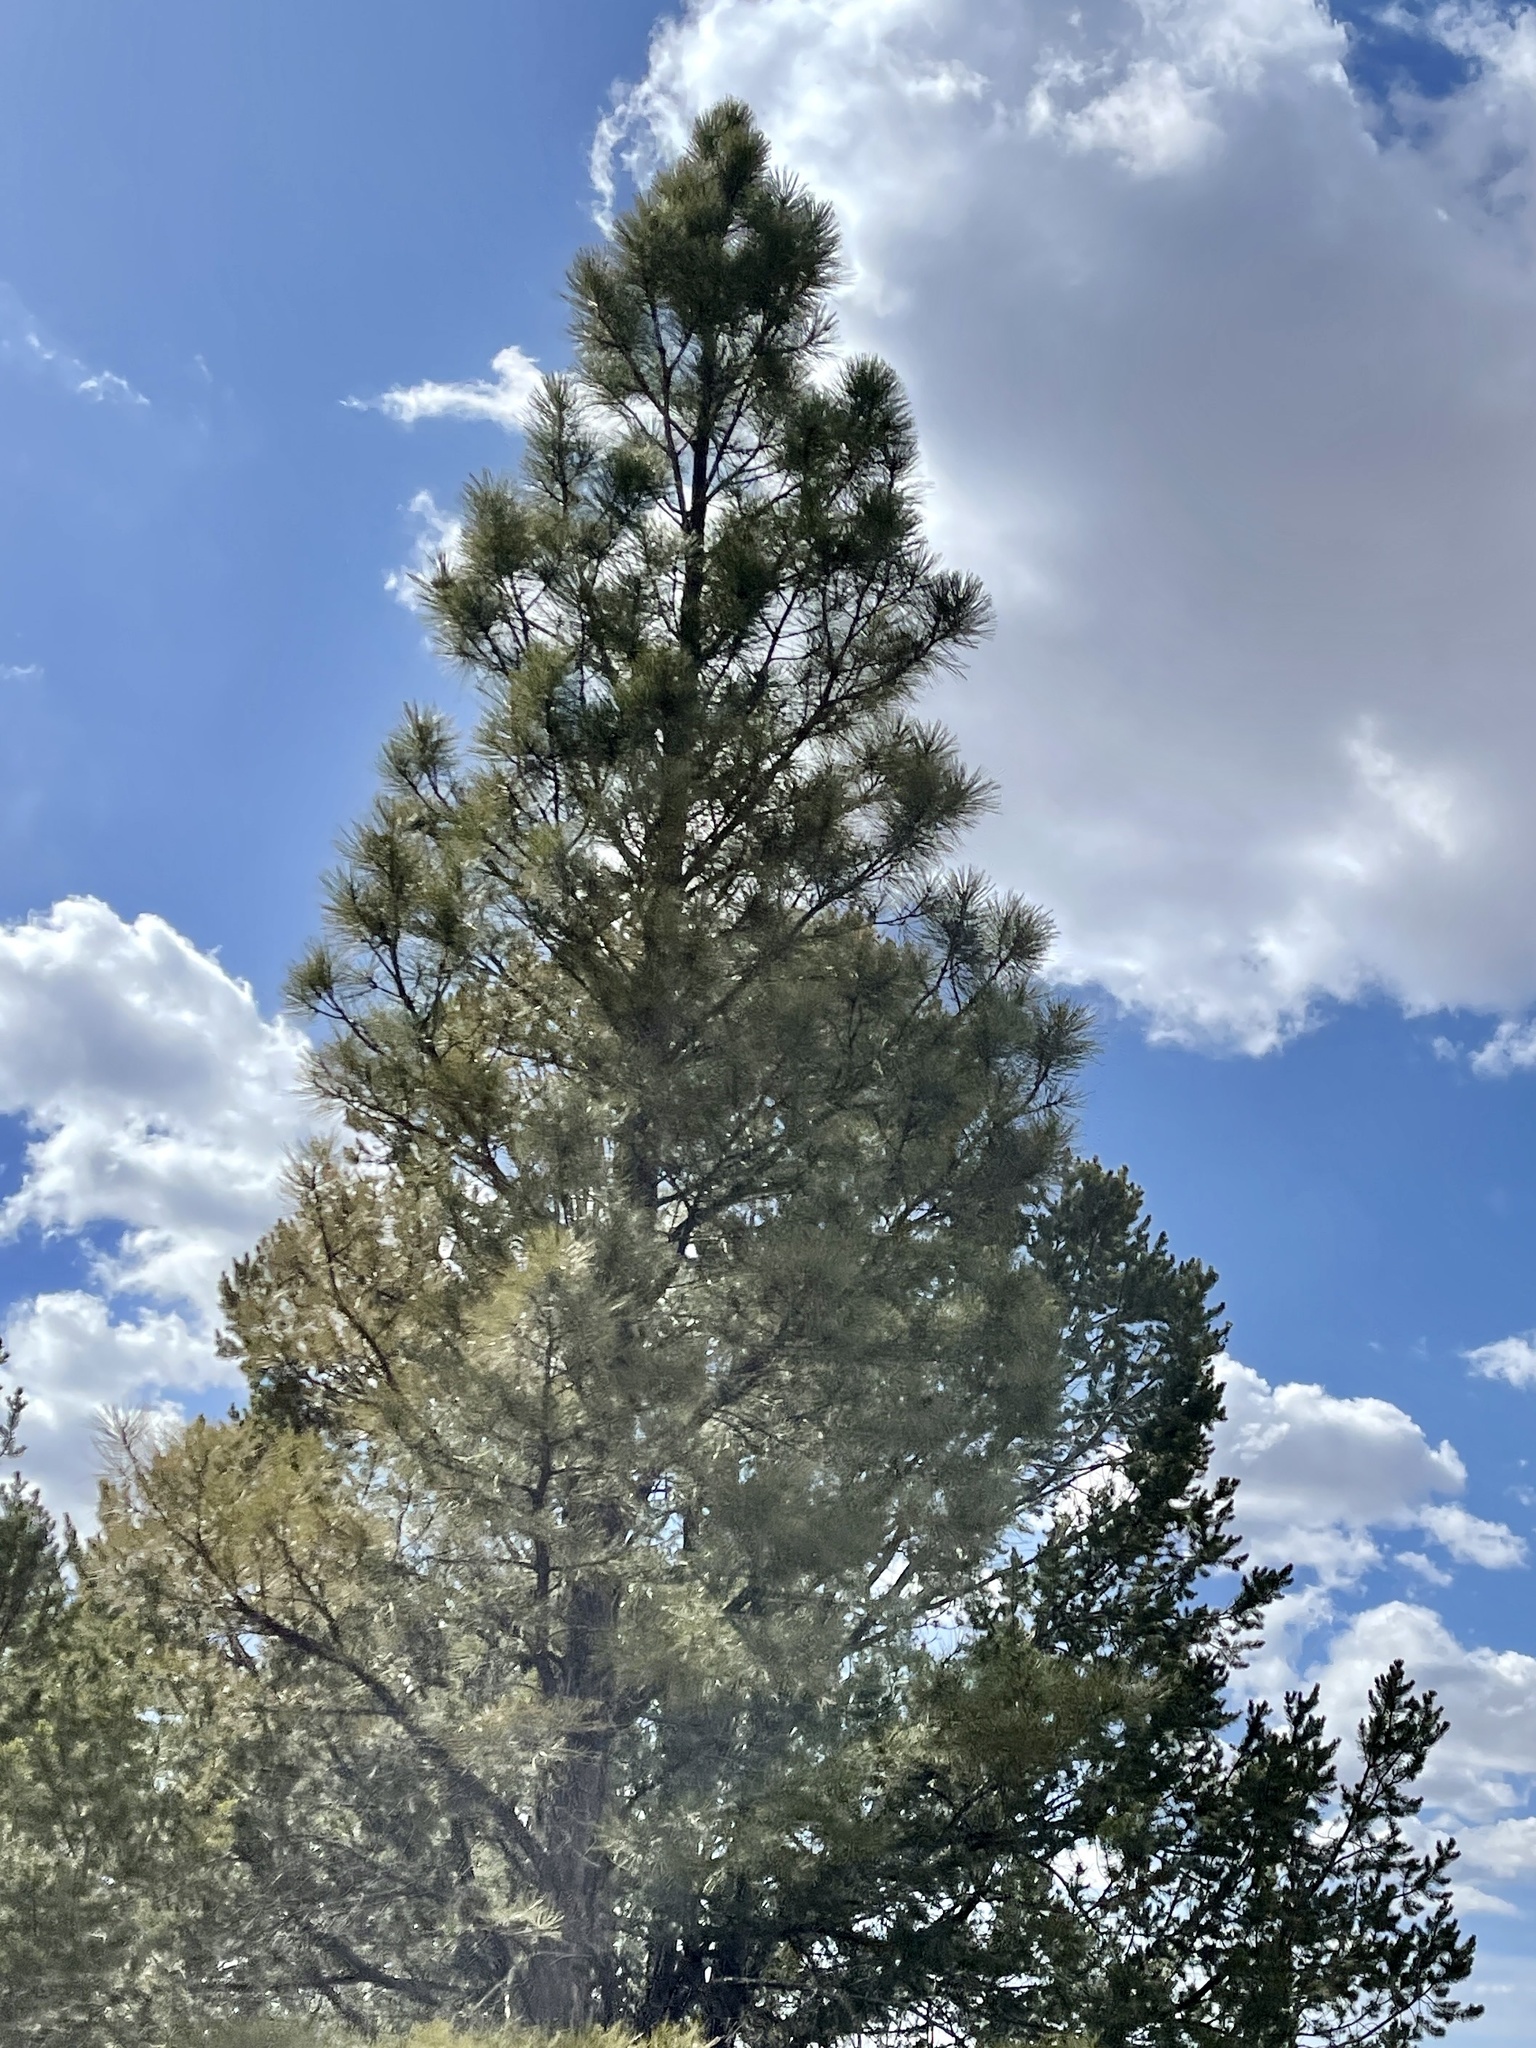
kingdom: Plantae
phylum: Tracheophyta
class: Pinopsida
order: Pinales
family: Pinaceae
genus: Pinus
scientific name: Pinus ponderosa
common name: Western yellow-pine
